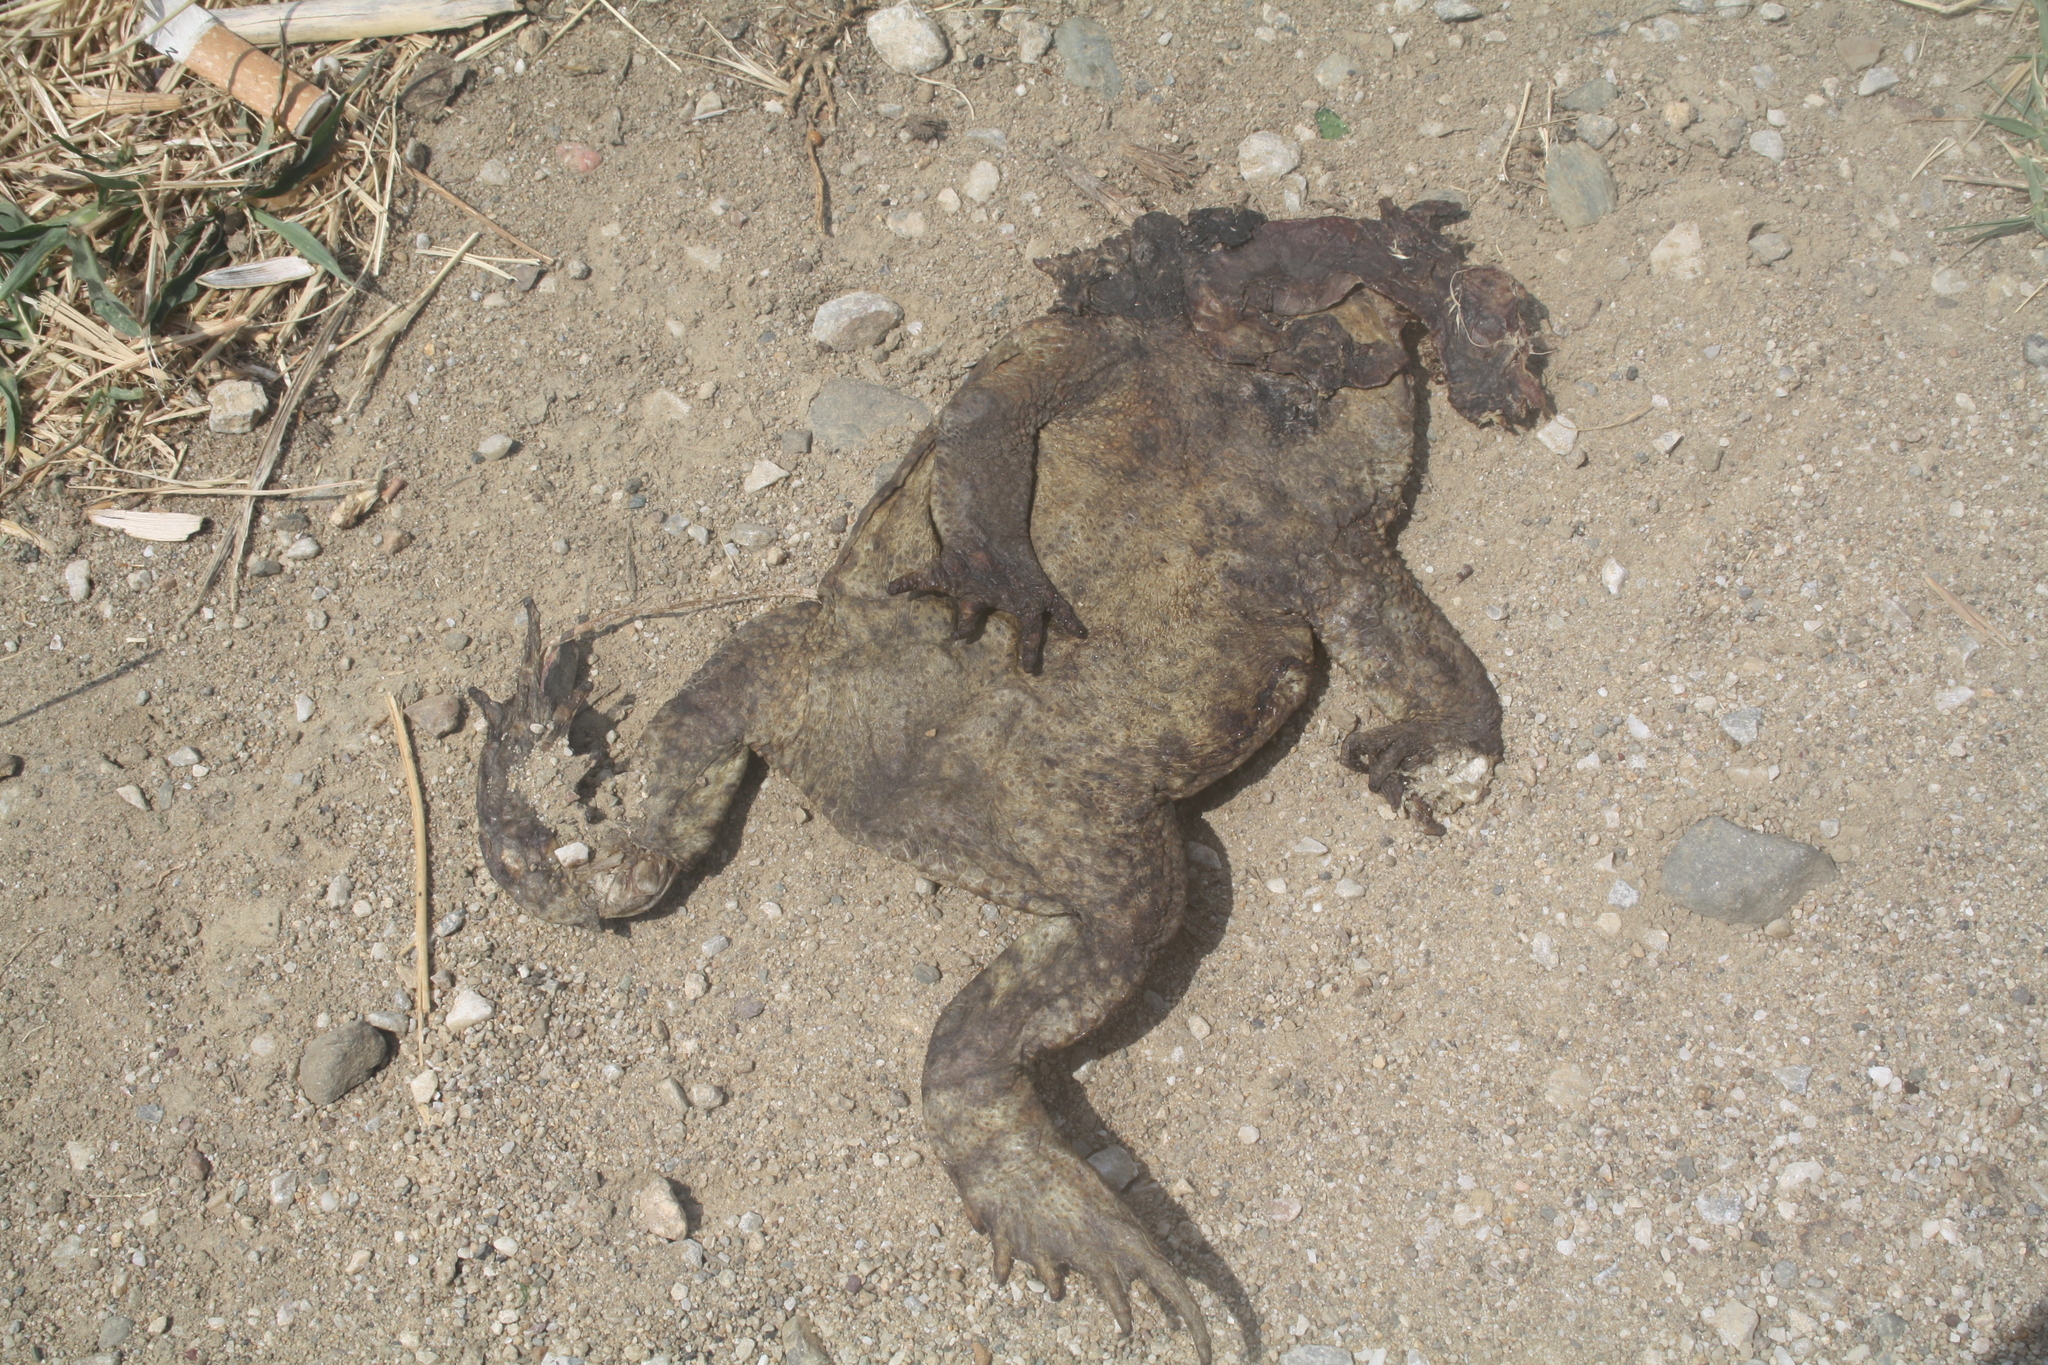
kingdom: Animalia
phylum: Chordata
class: Amphibia
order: Anura
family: Bufonidae
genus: Bufo
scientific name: Bufo bufo
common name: Common toad
